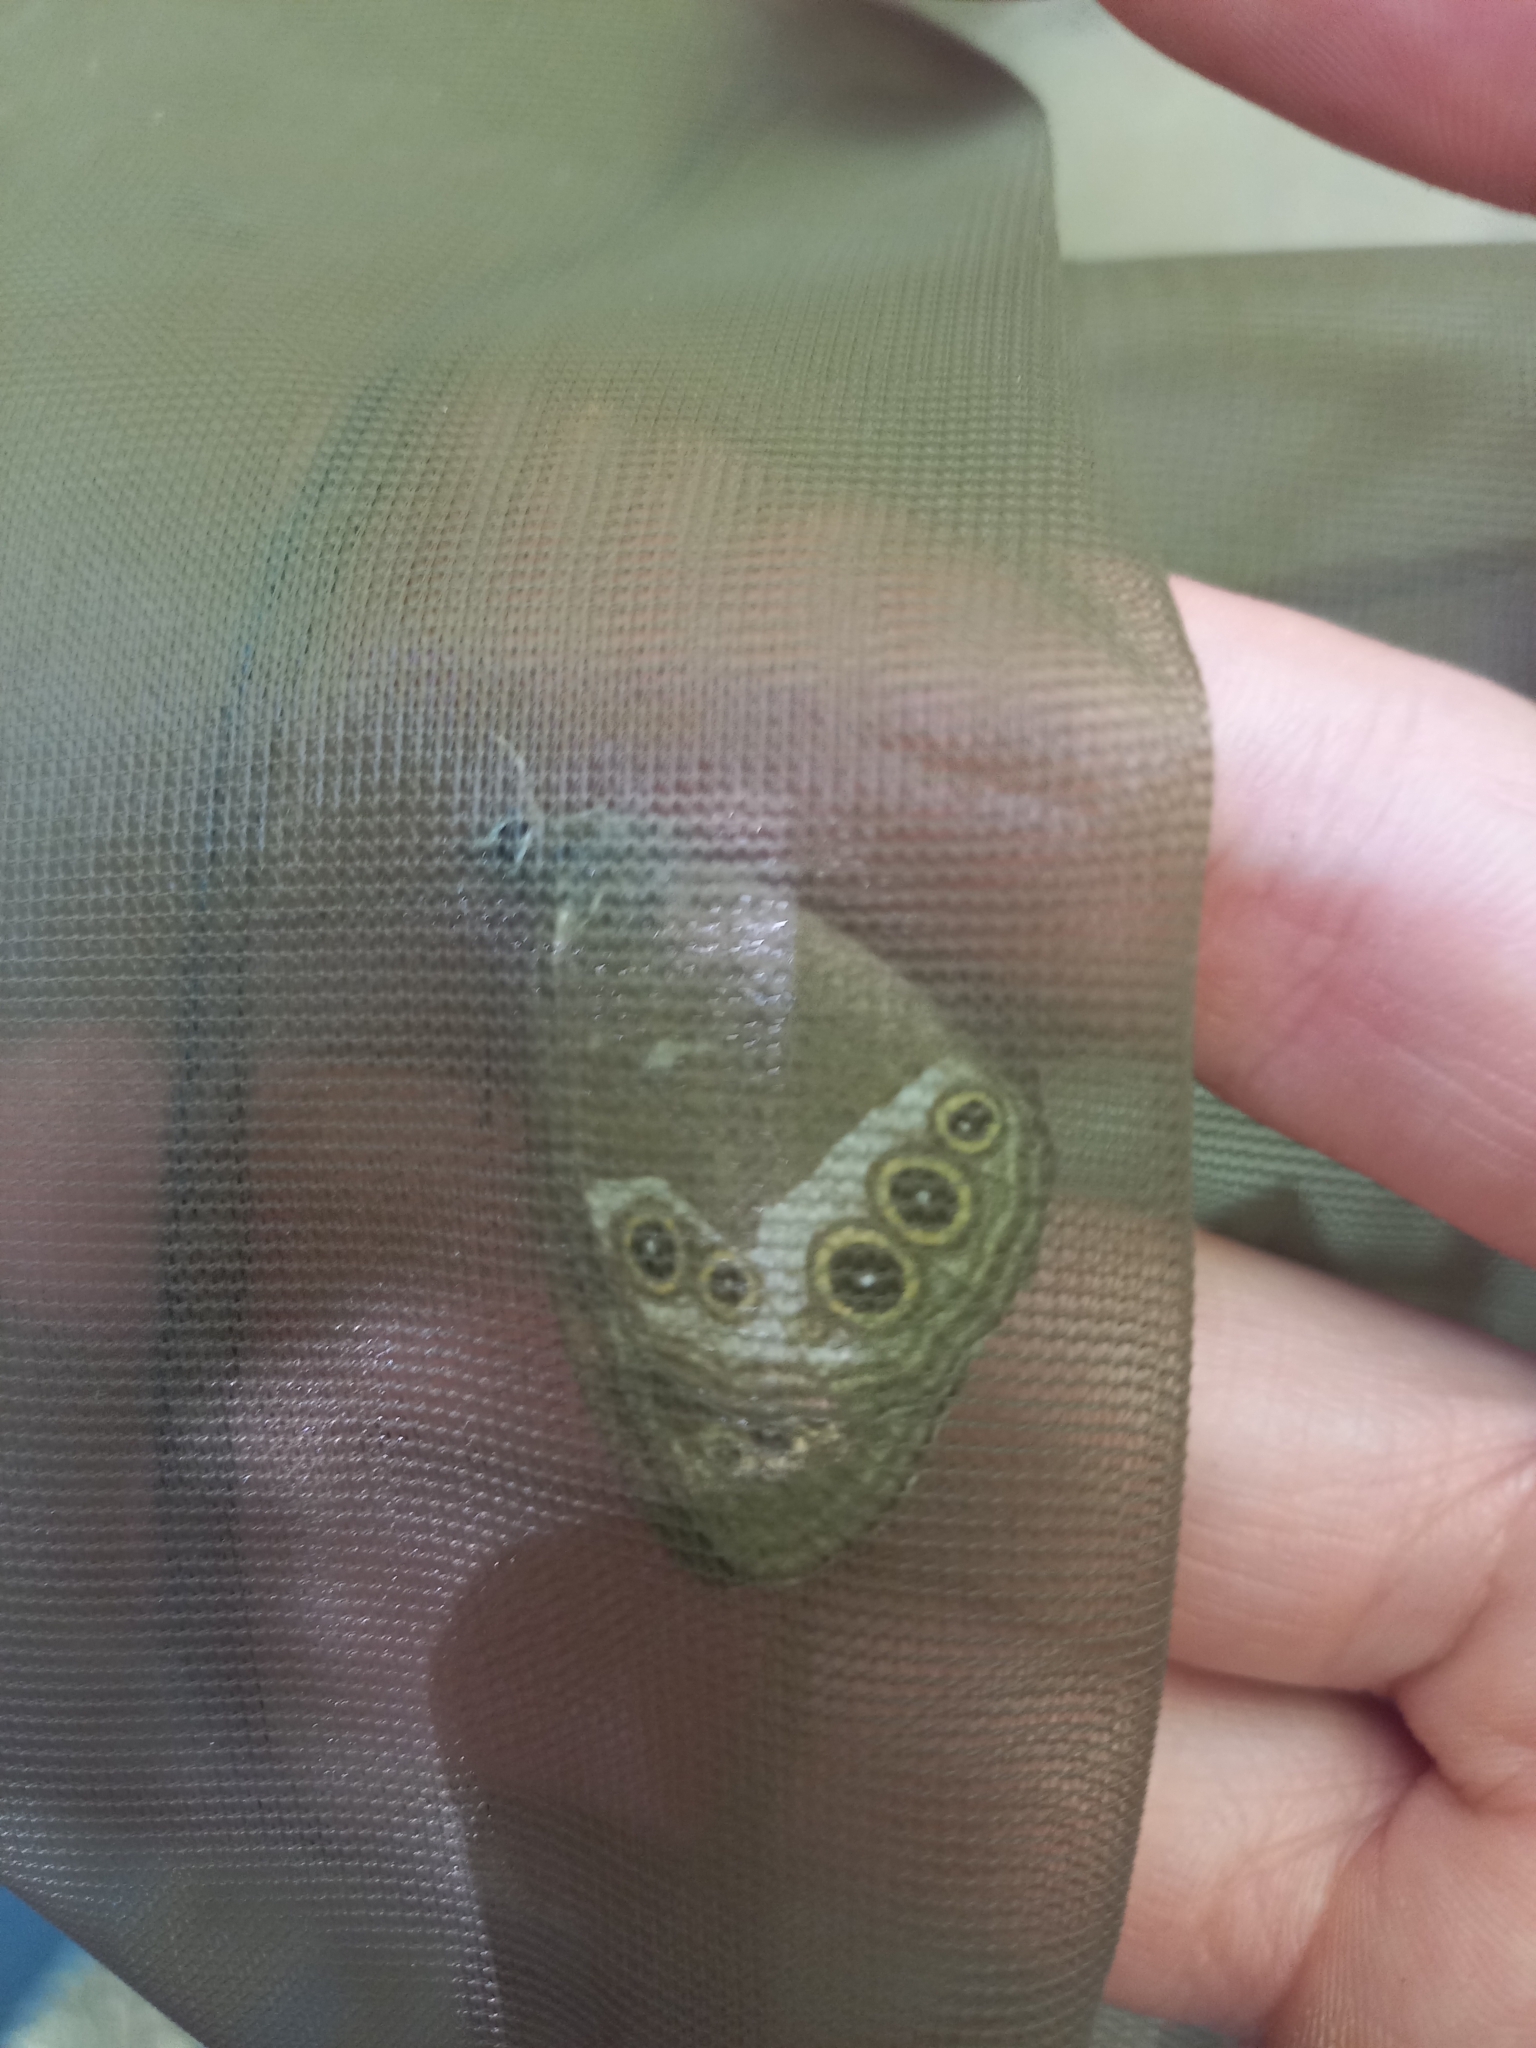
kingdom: Animalia
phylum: Arthropoda
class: Insecta
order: Lepidoptera
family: Nymphalidae
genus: Pararge
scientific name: Pararge Lopinga achine
